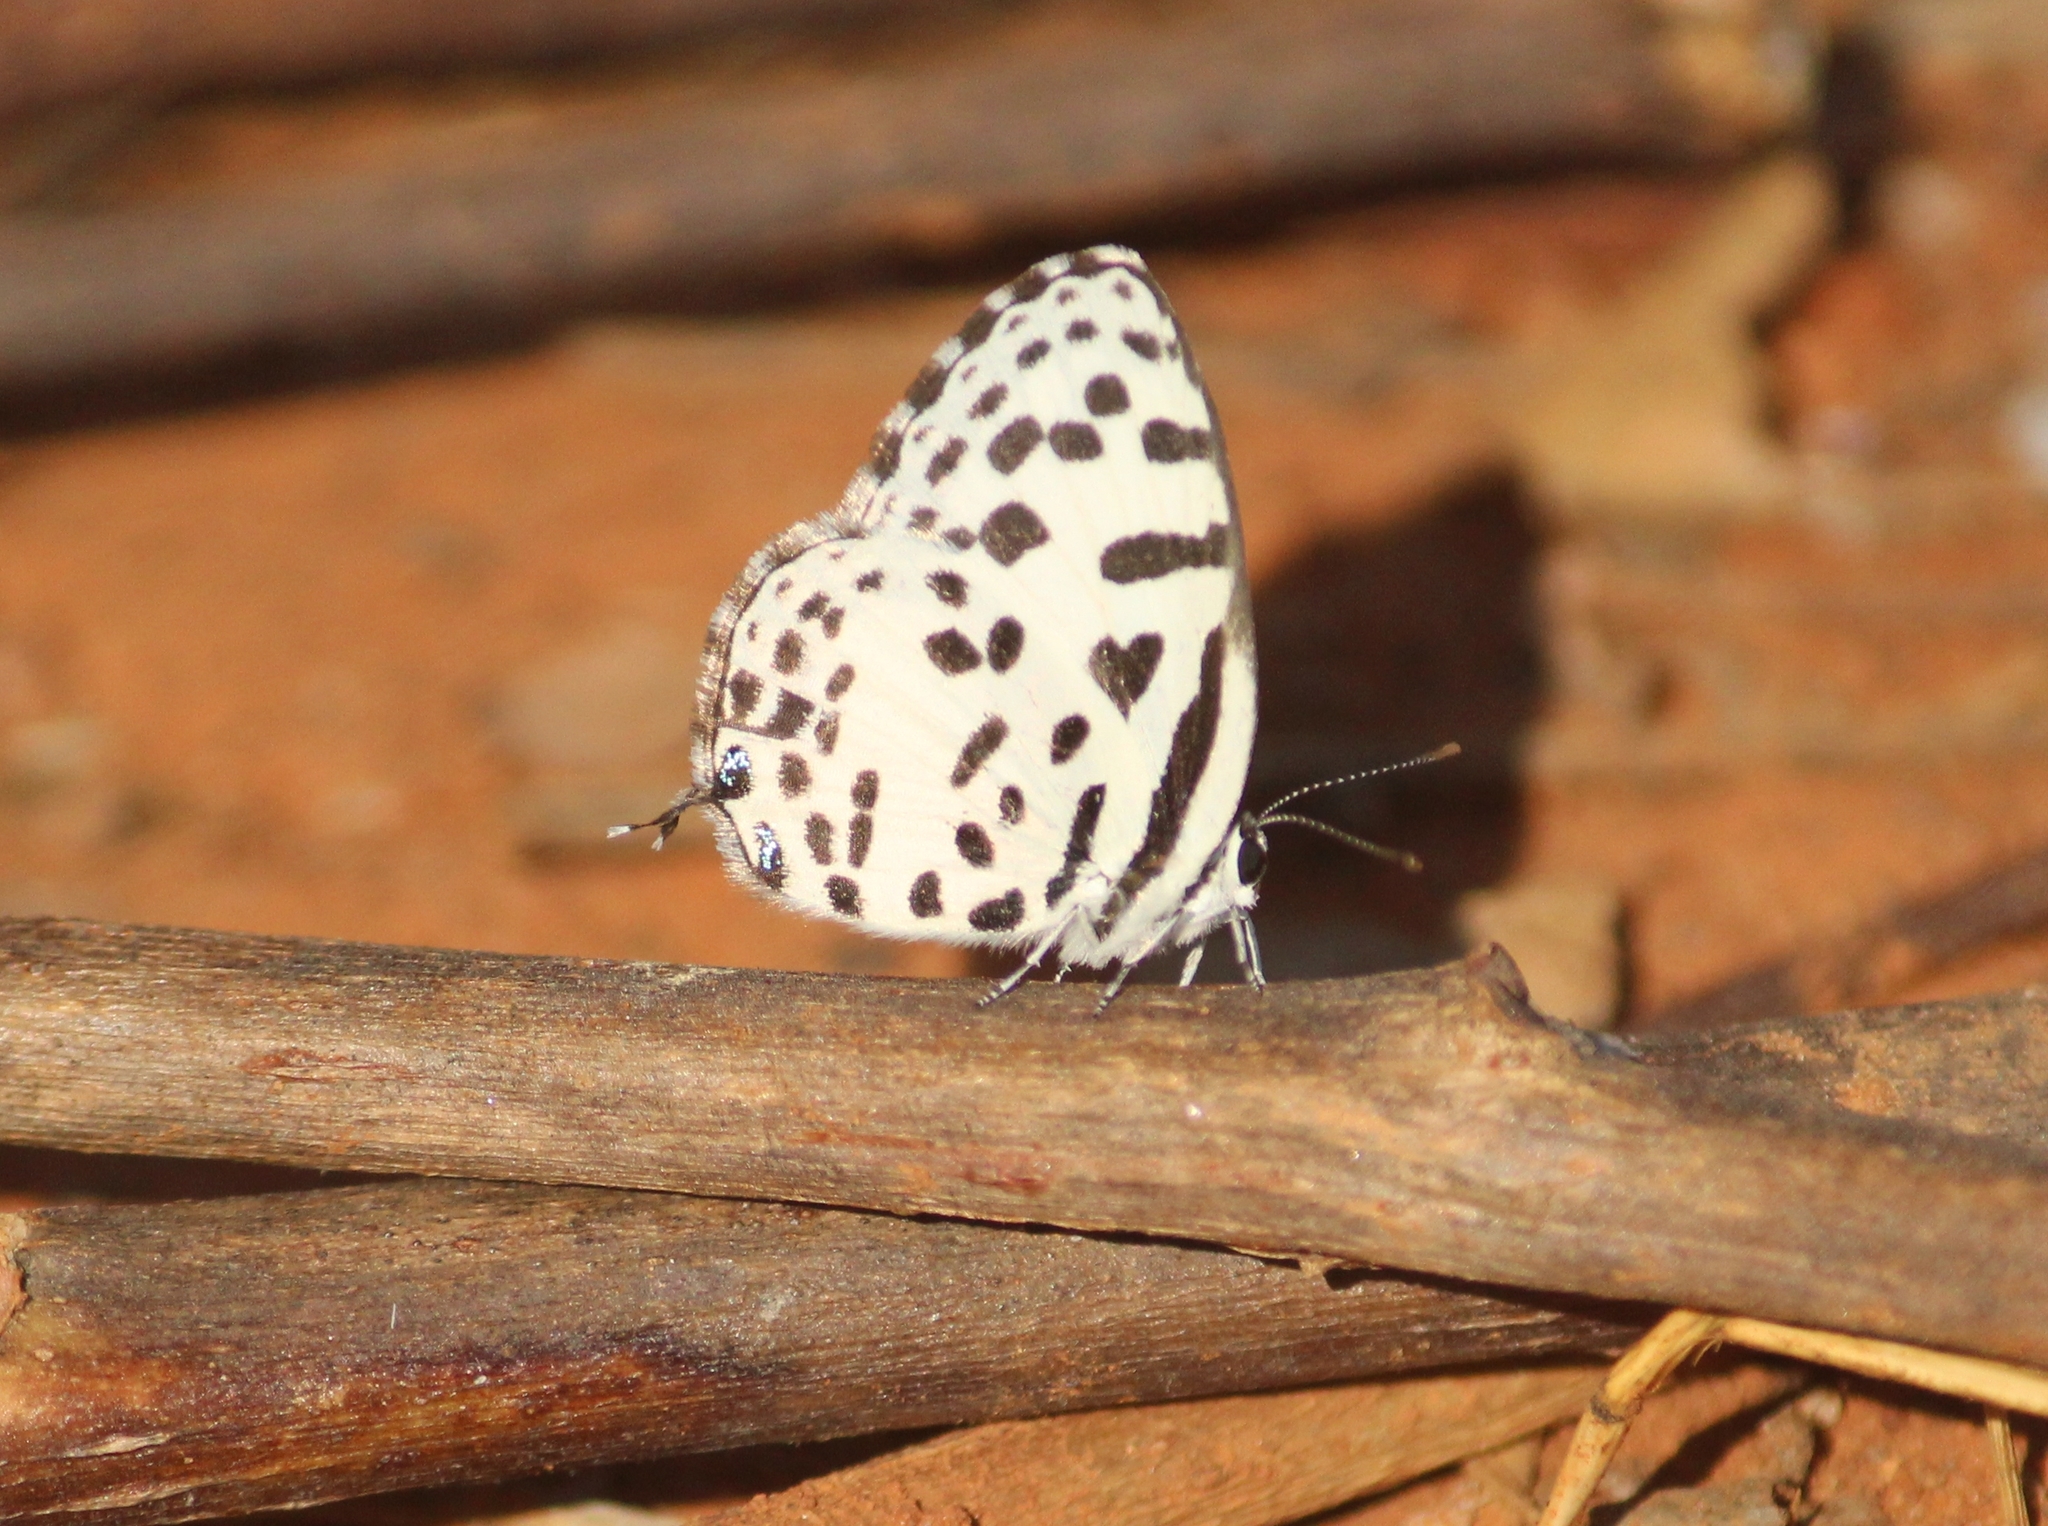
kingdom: Animalia
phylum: Arthropoda
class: Insecta
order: Lepidoptera
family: Lycaenidae
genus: Castalius
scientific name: Castalius rosimon
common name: Common pierrot
